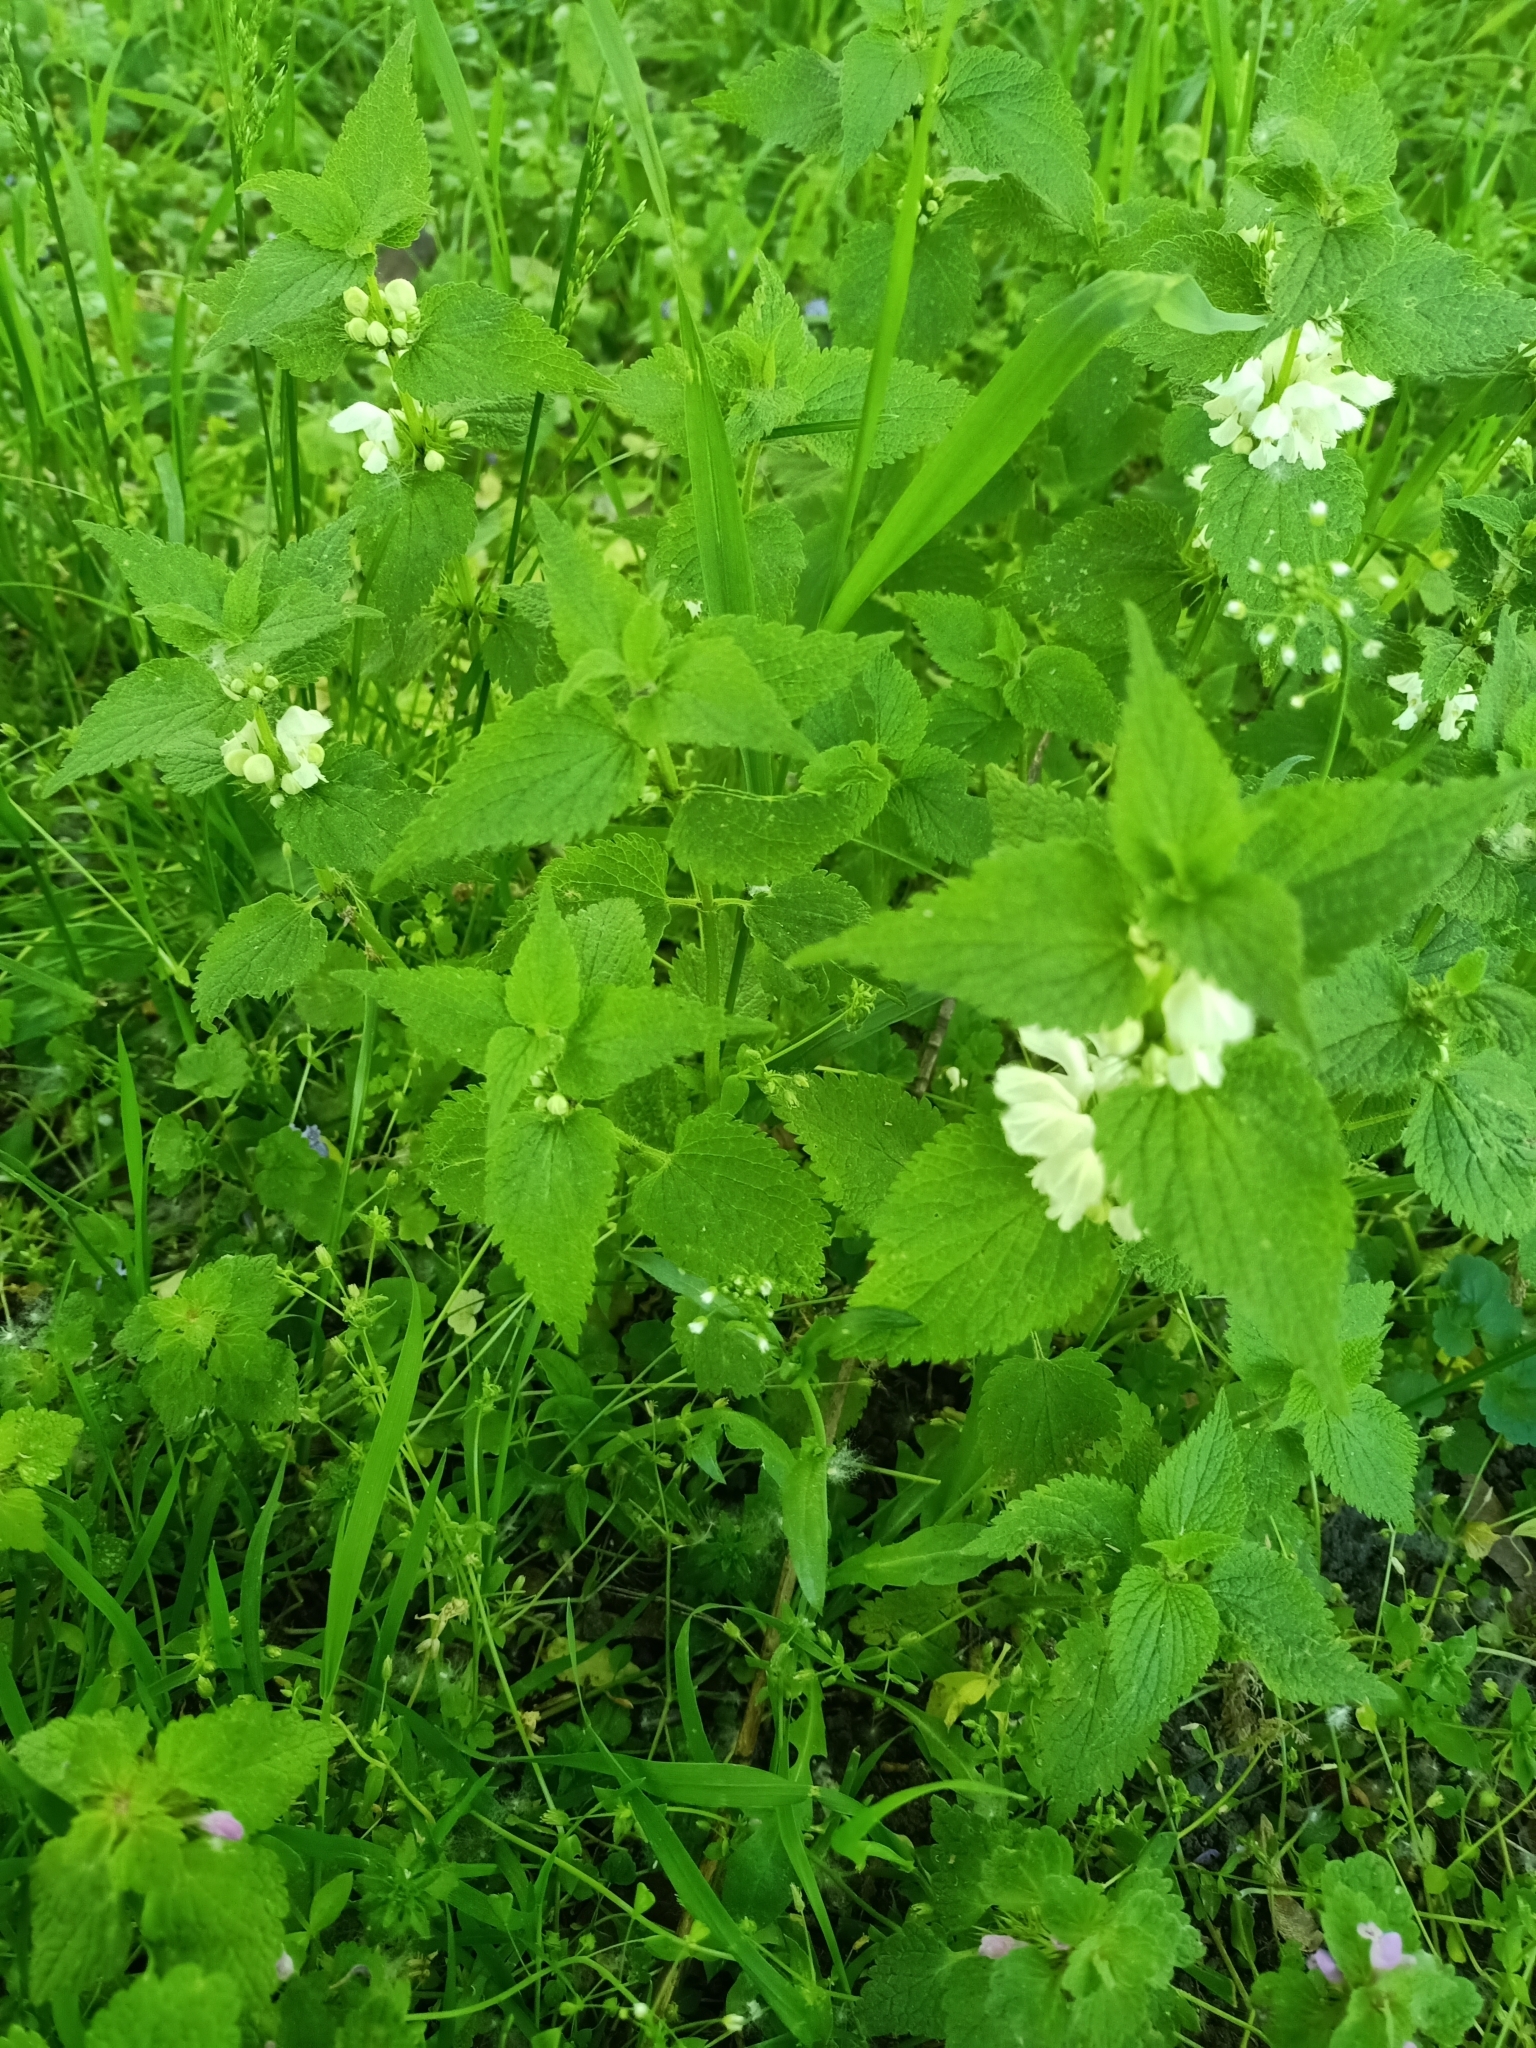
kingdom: Plantae
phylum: Tracheophyta
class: Magnoliopsida
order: Lamiales
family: Lamiaceae
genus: Lamium
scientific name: Lamium album
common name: White dead-nettle
